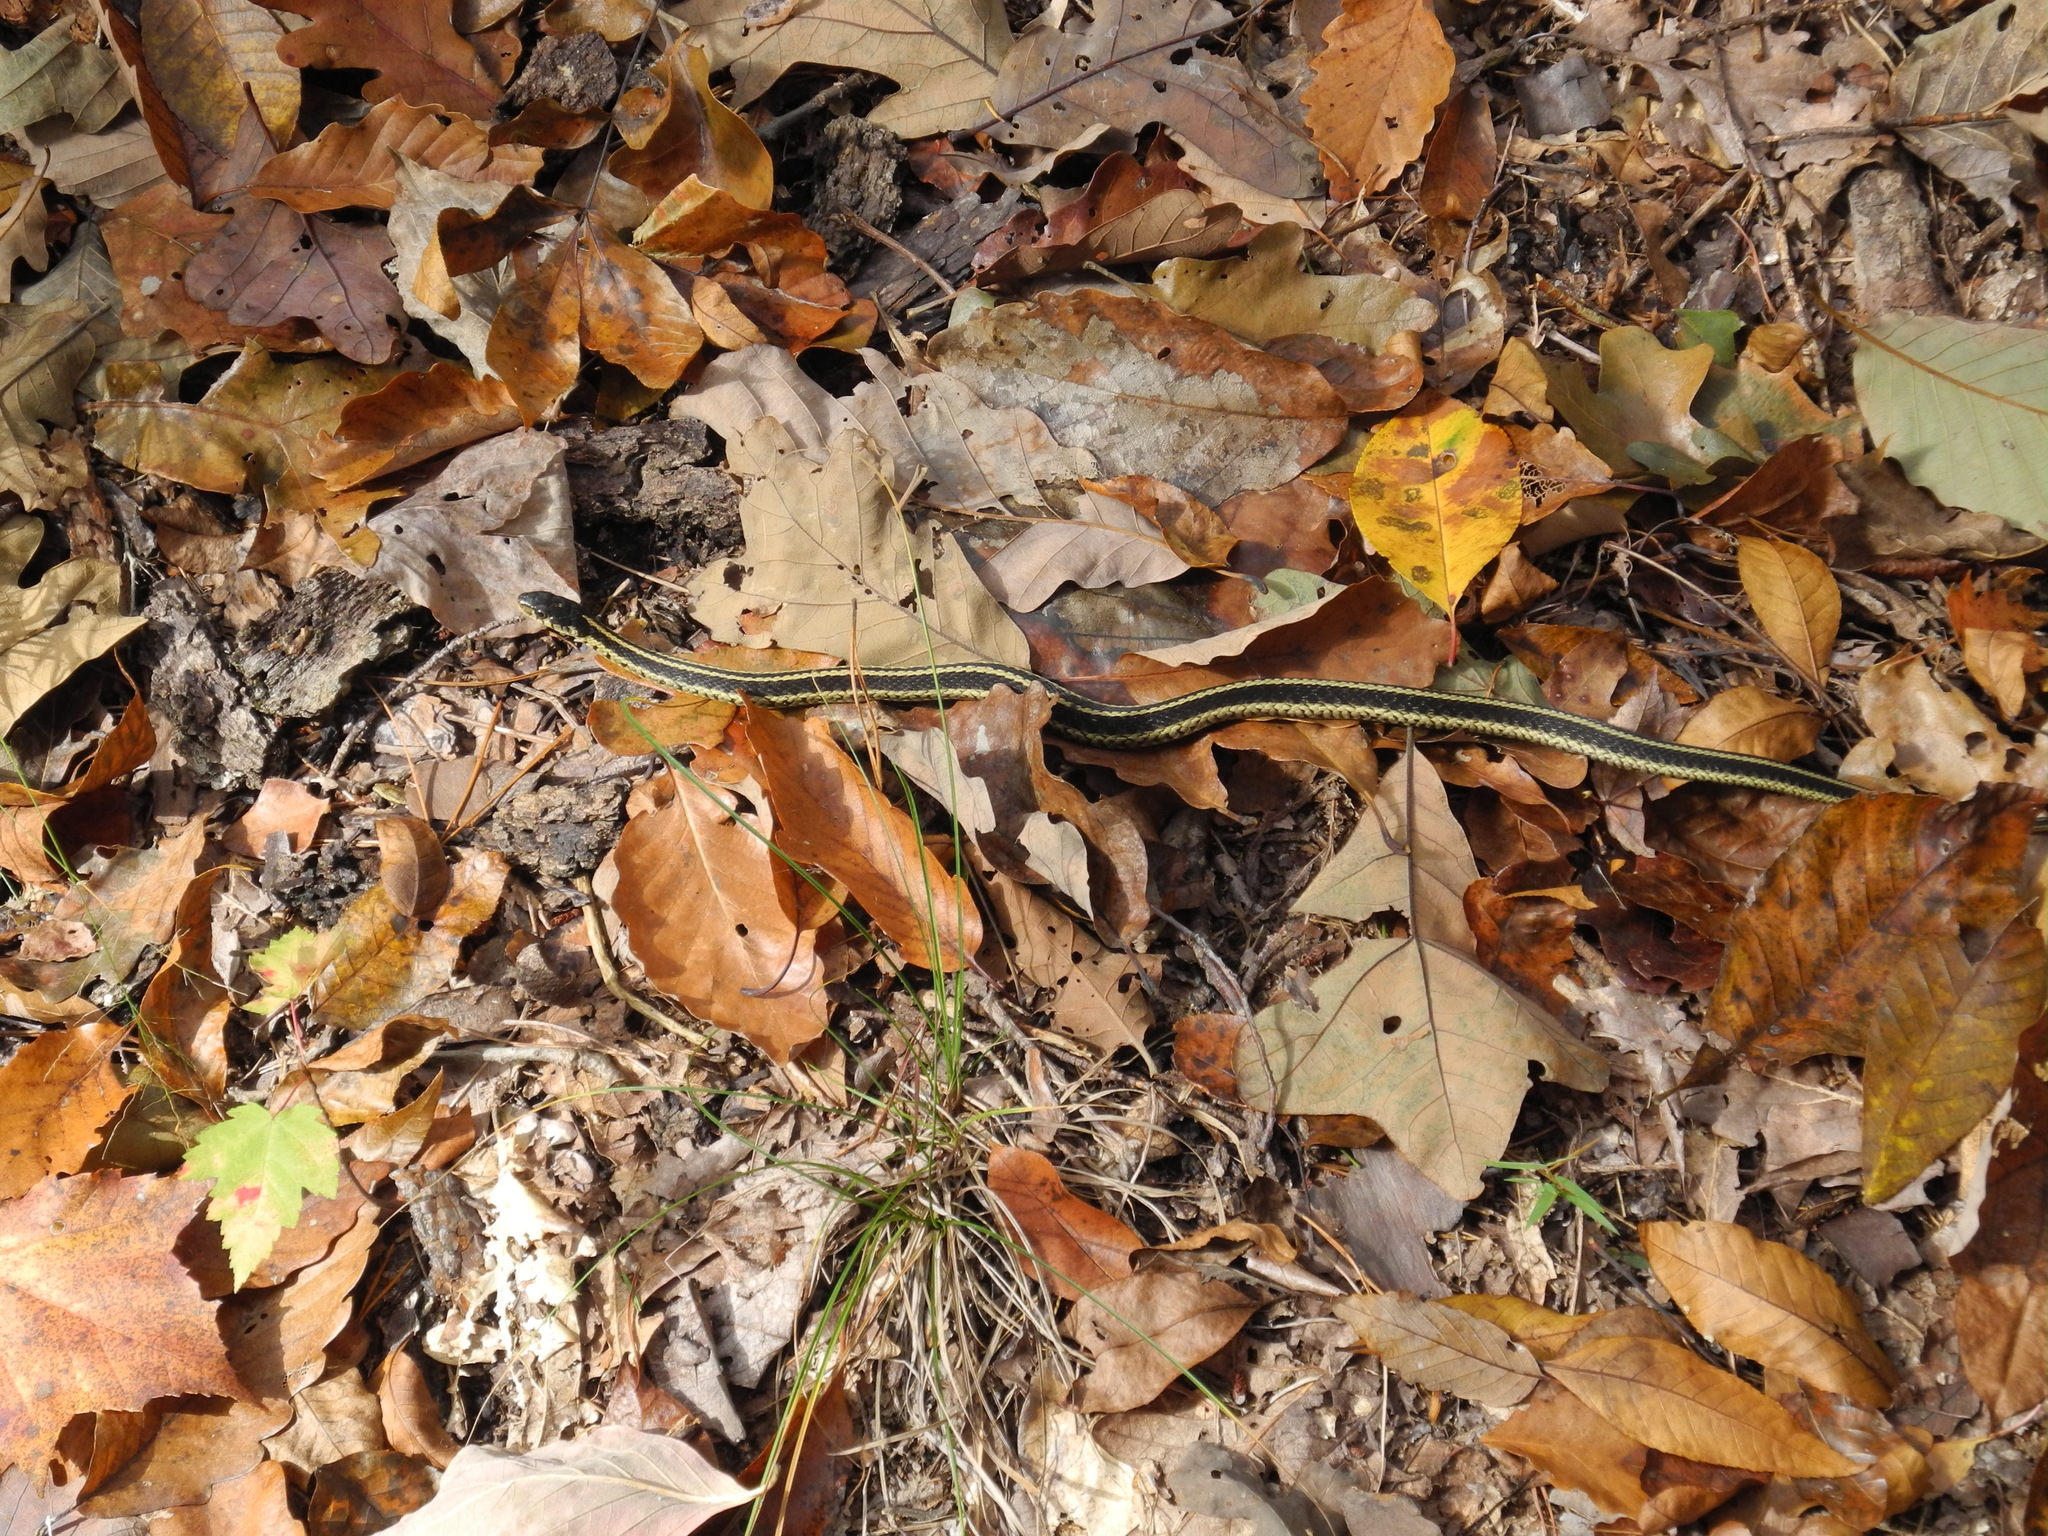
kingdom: Animalia
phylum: Chordata
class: Squamata
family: Colubridae
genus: Thamnophis
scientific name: Thamnophis sirtalis
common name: Common garter snake
